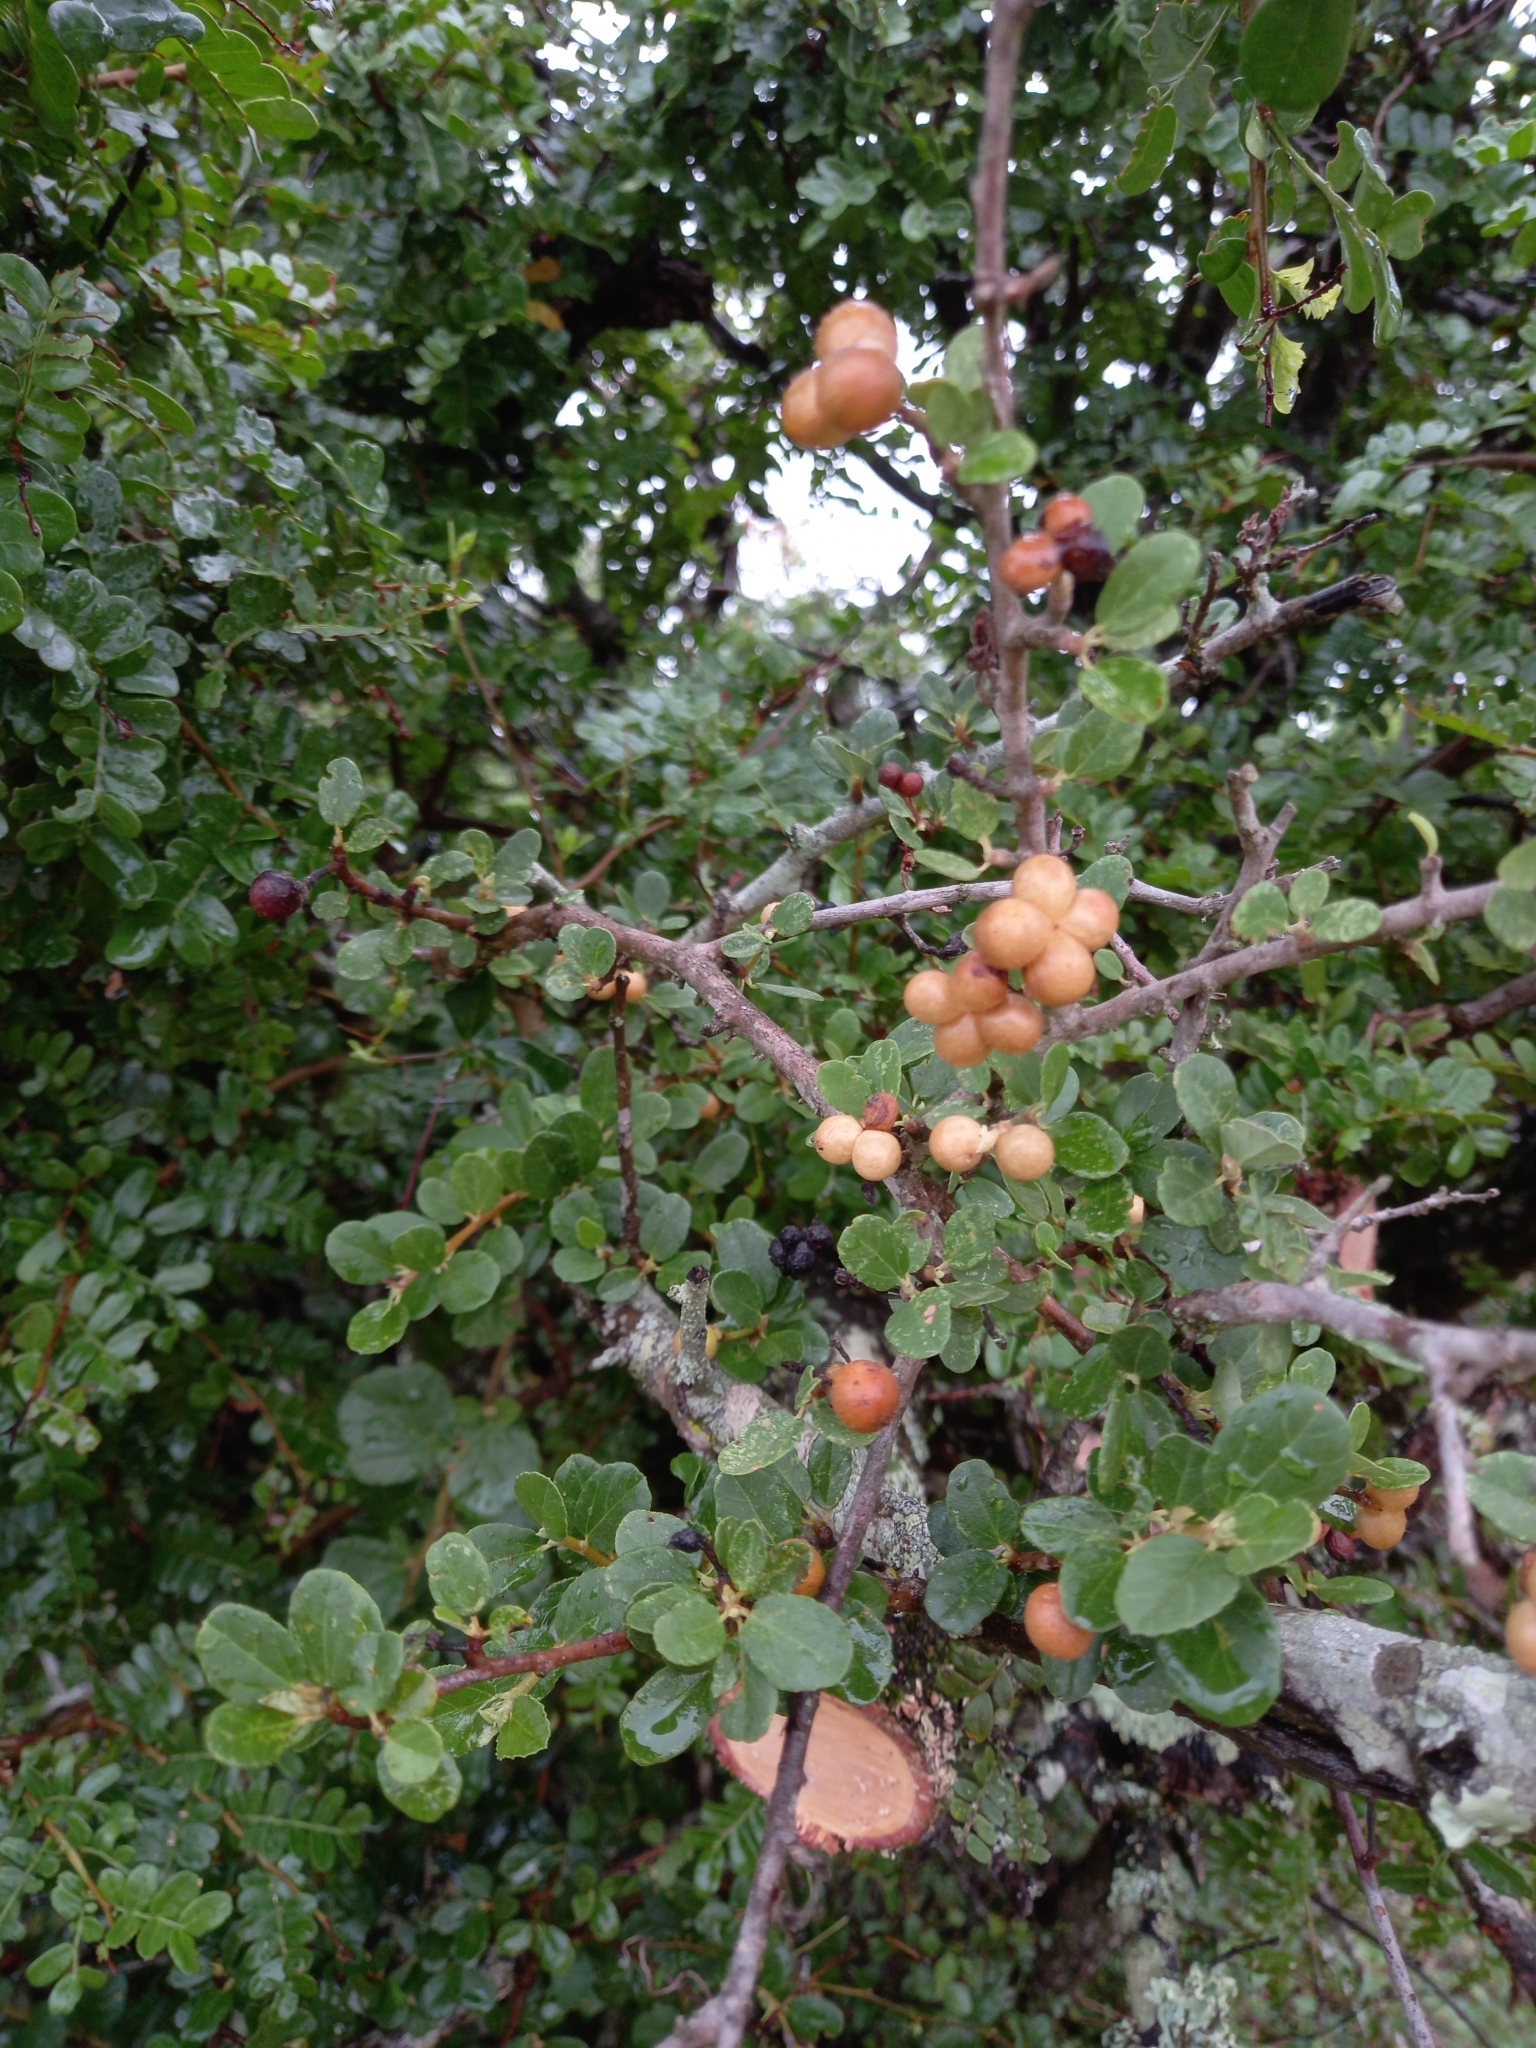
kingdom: Plantae
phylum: Tracheophyta
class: Magnoliopsida
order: Malvales
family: Malvaceae
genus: Grewia
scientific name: Grewia robusta
